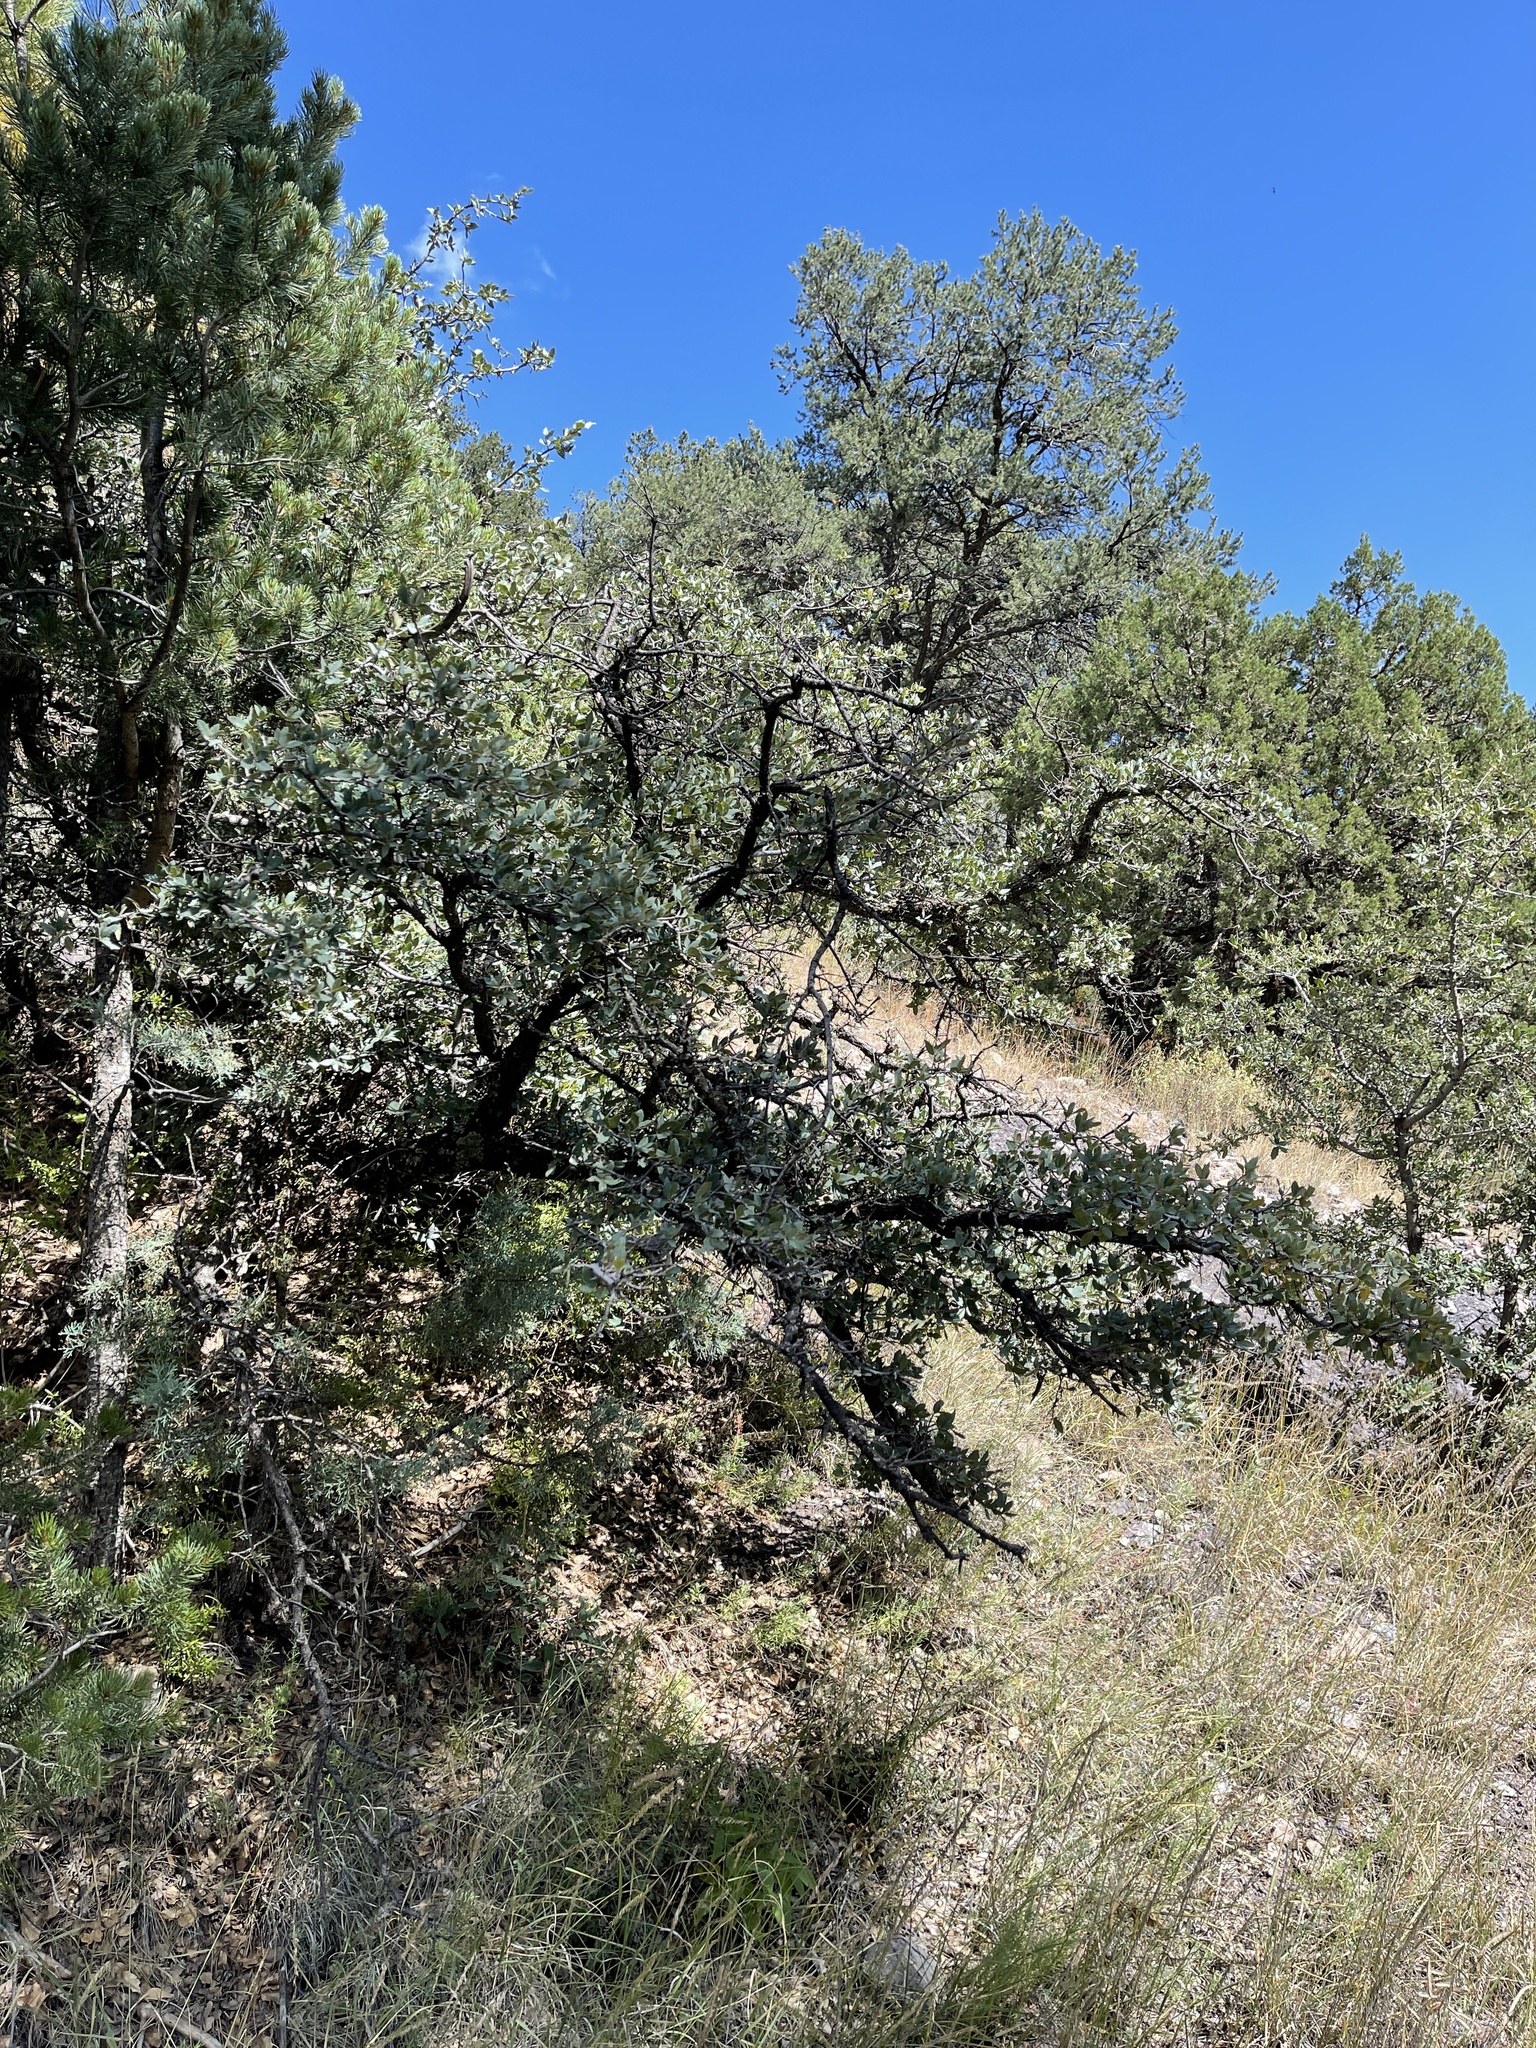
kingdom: Plantae
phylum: Tracheophyta
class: Magnoliopsida
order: Fagales
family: Fagaceae
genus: Quercus
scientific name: Quercus grisea
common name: Gray oak
